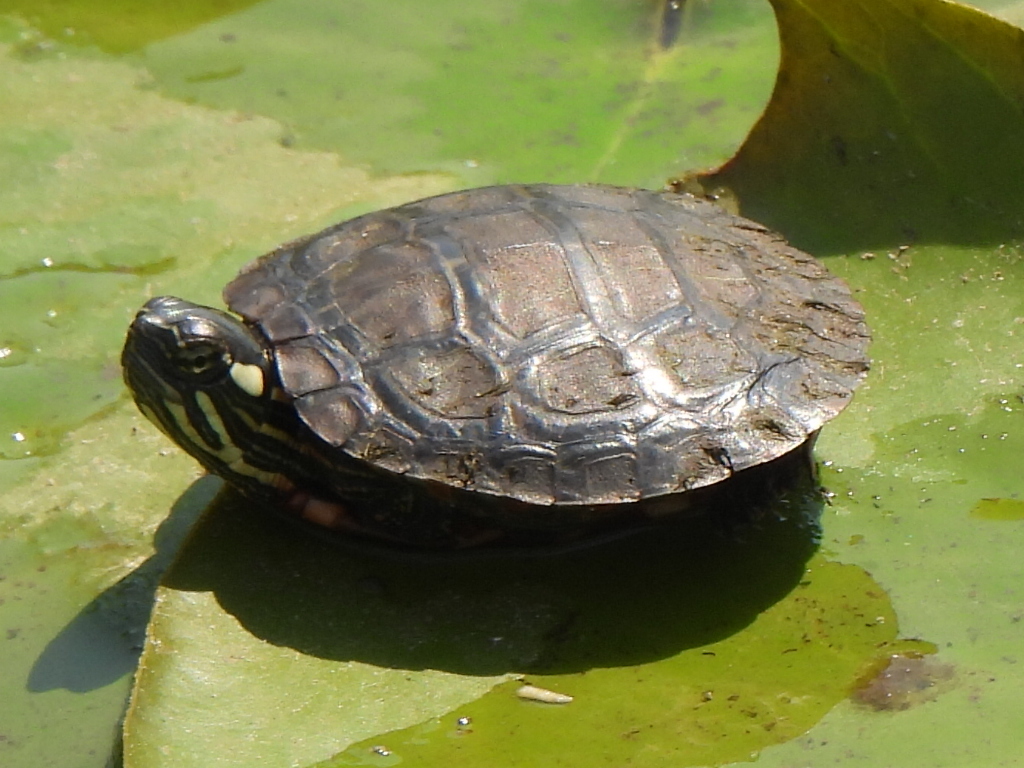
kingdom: Animalia
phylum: Chordata
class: Testudines
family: Emydidae
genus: Chrysemys
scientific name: Chrysemys picta
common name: Painted turtle
